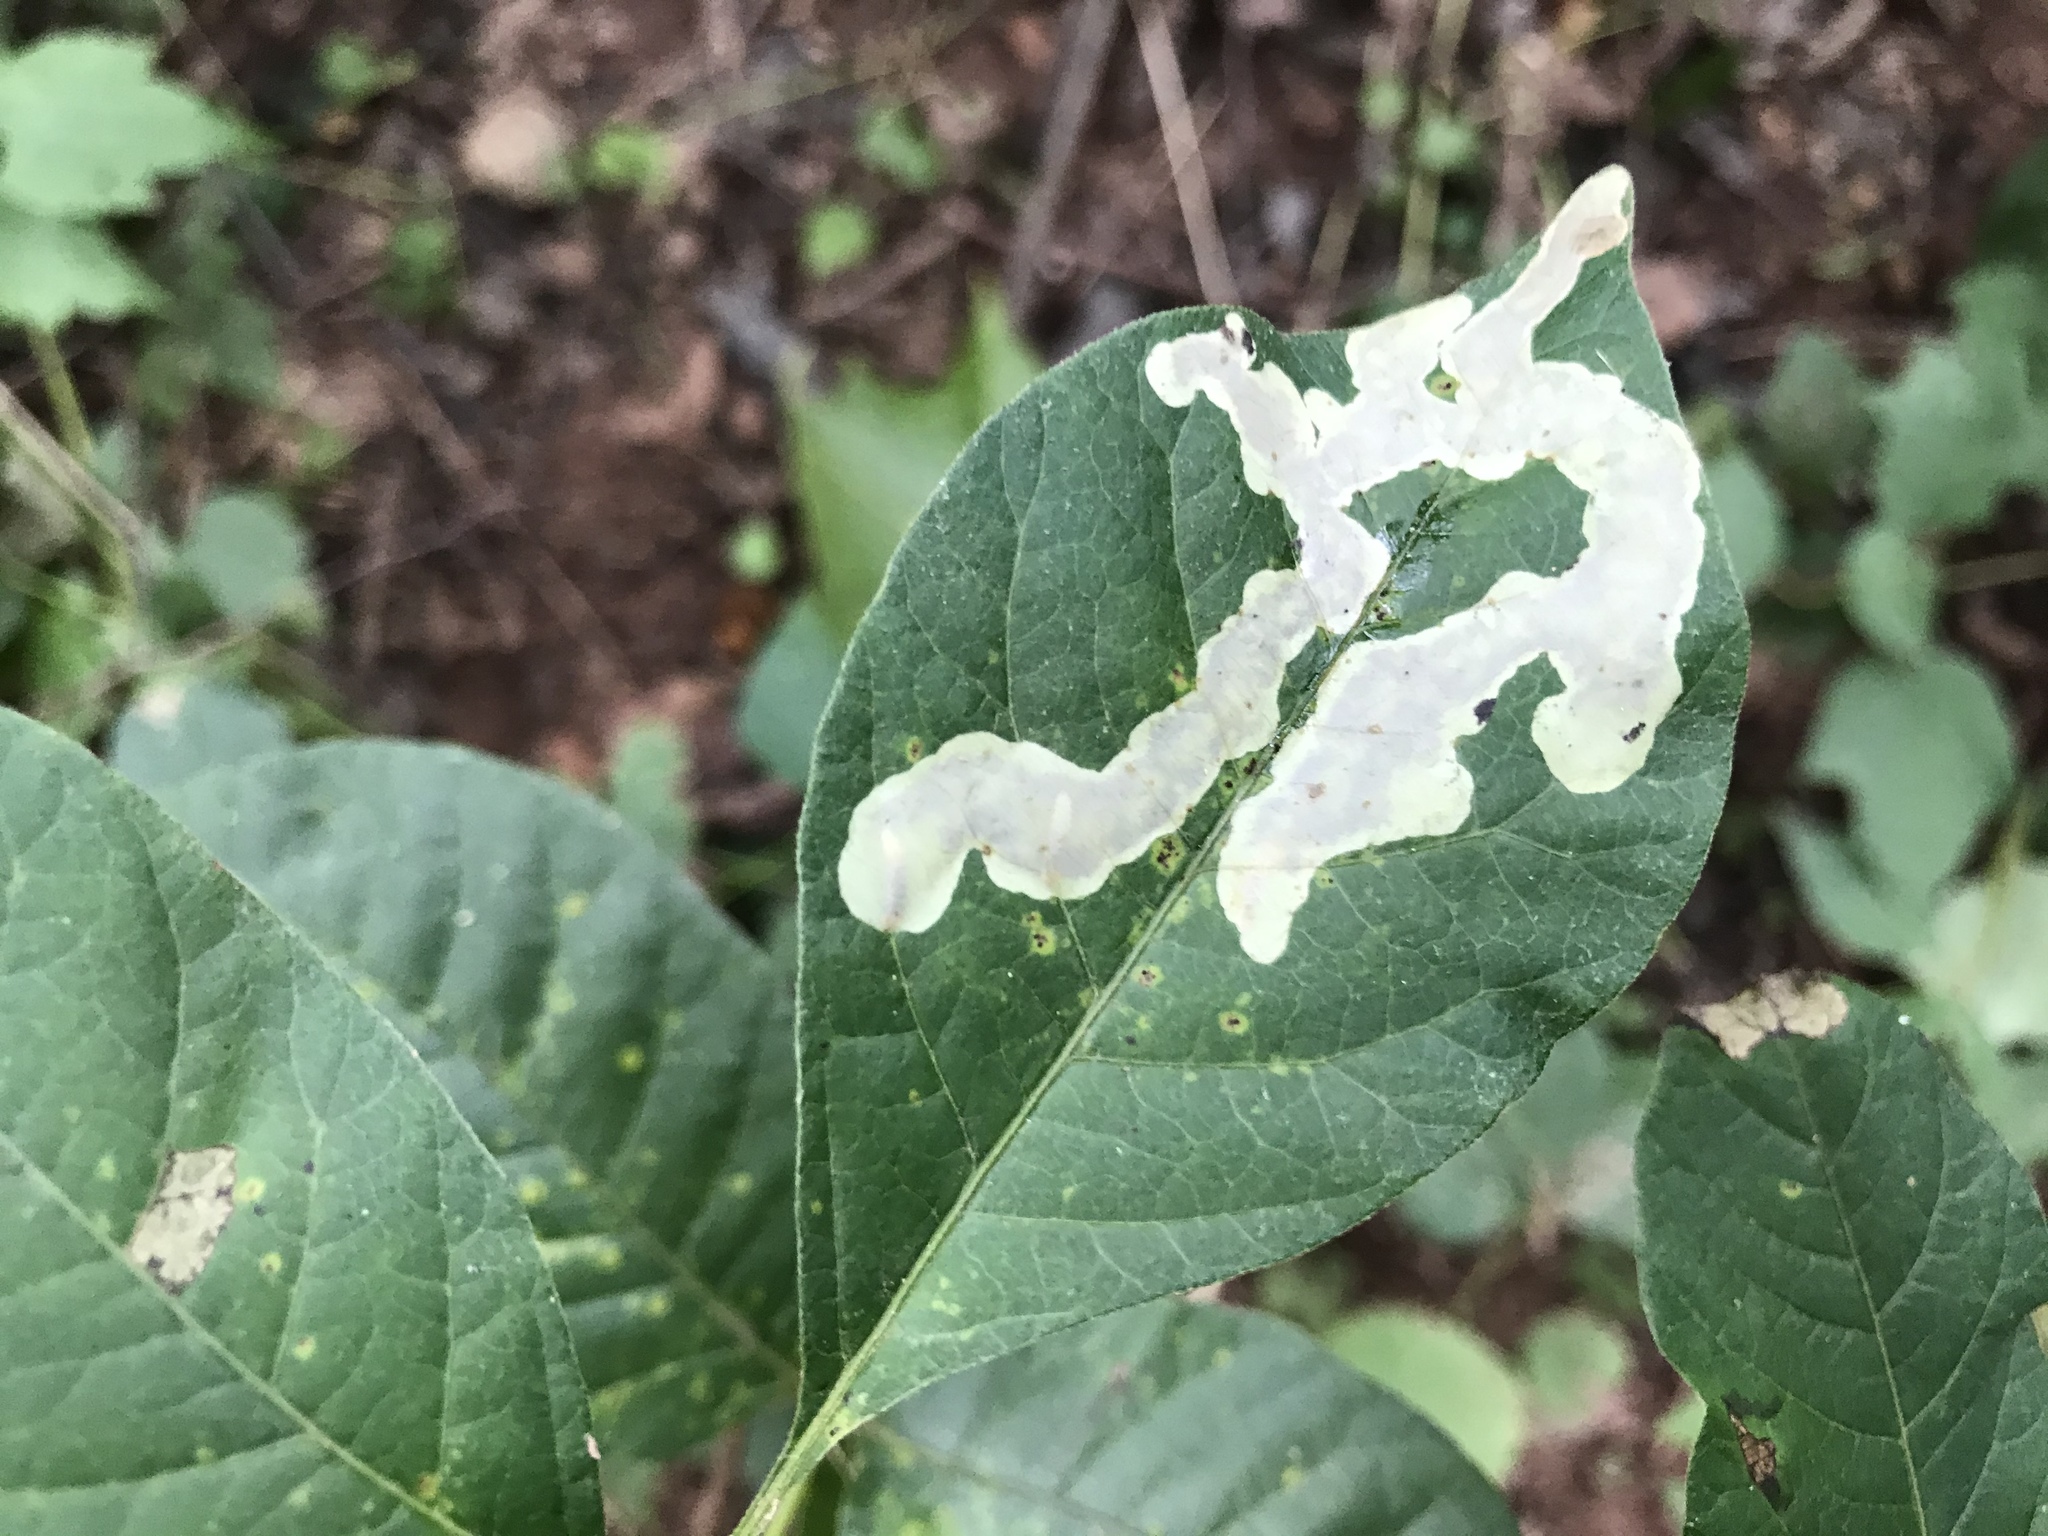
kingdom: Animalia
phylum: Arthropoda
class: Insecta
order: Lepidoptera
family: Gracillariidae
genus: Cameraria
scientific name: Cameraria guttifinitella
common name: Poison ivy leaf-miner moth
